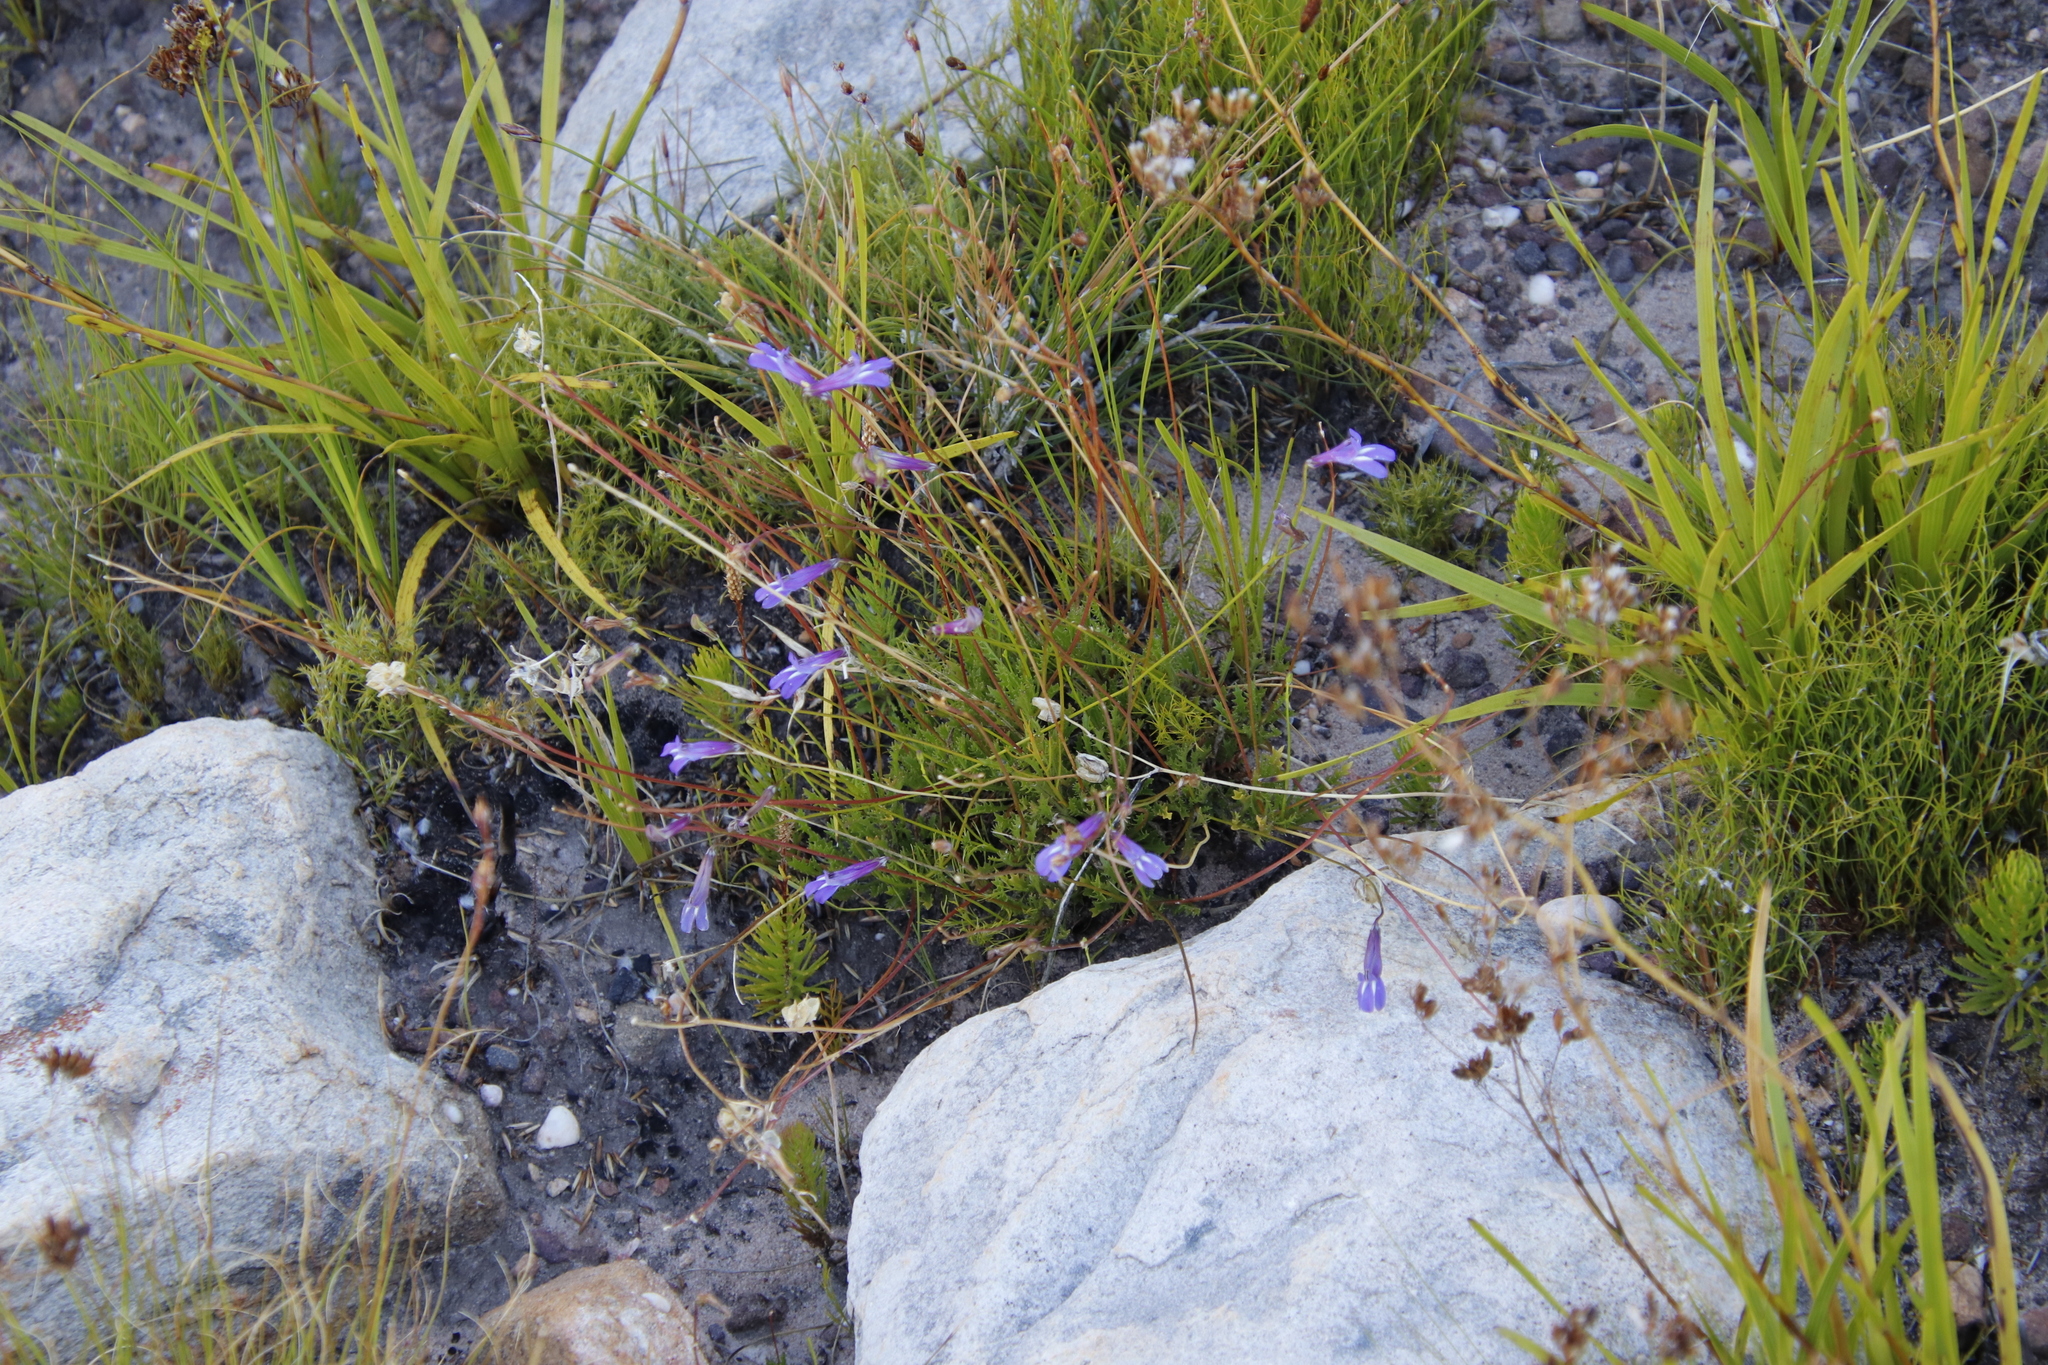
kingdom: Plantae
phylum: Tracheophyta
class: Magnoliopsida
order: Asterales
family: Campanulaceae
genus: Lobelia
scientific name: Lobelia coronopifolia
